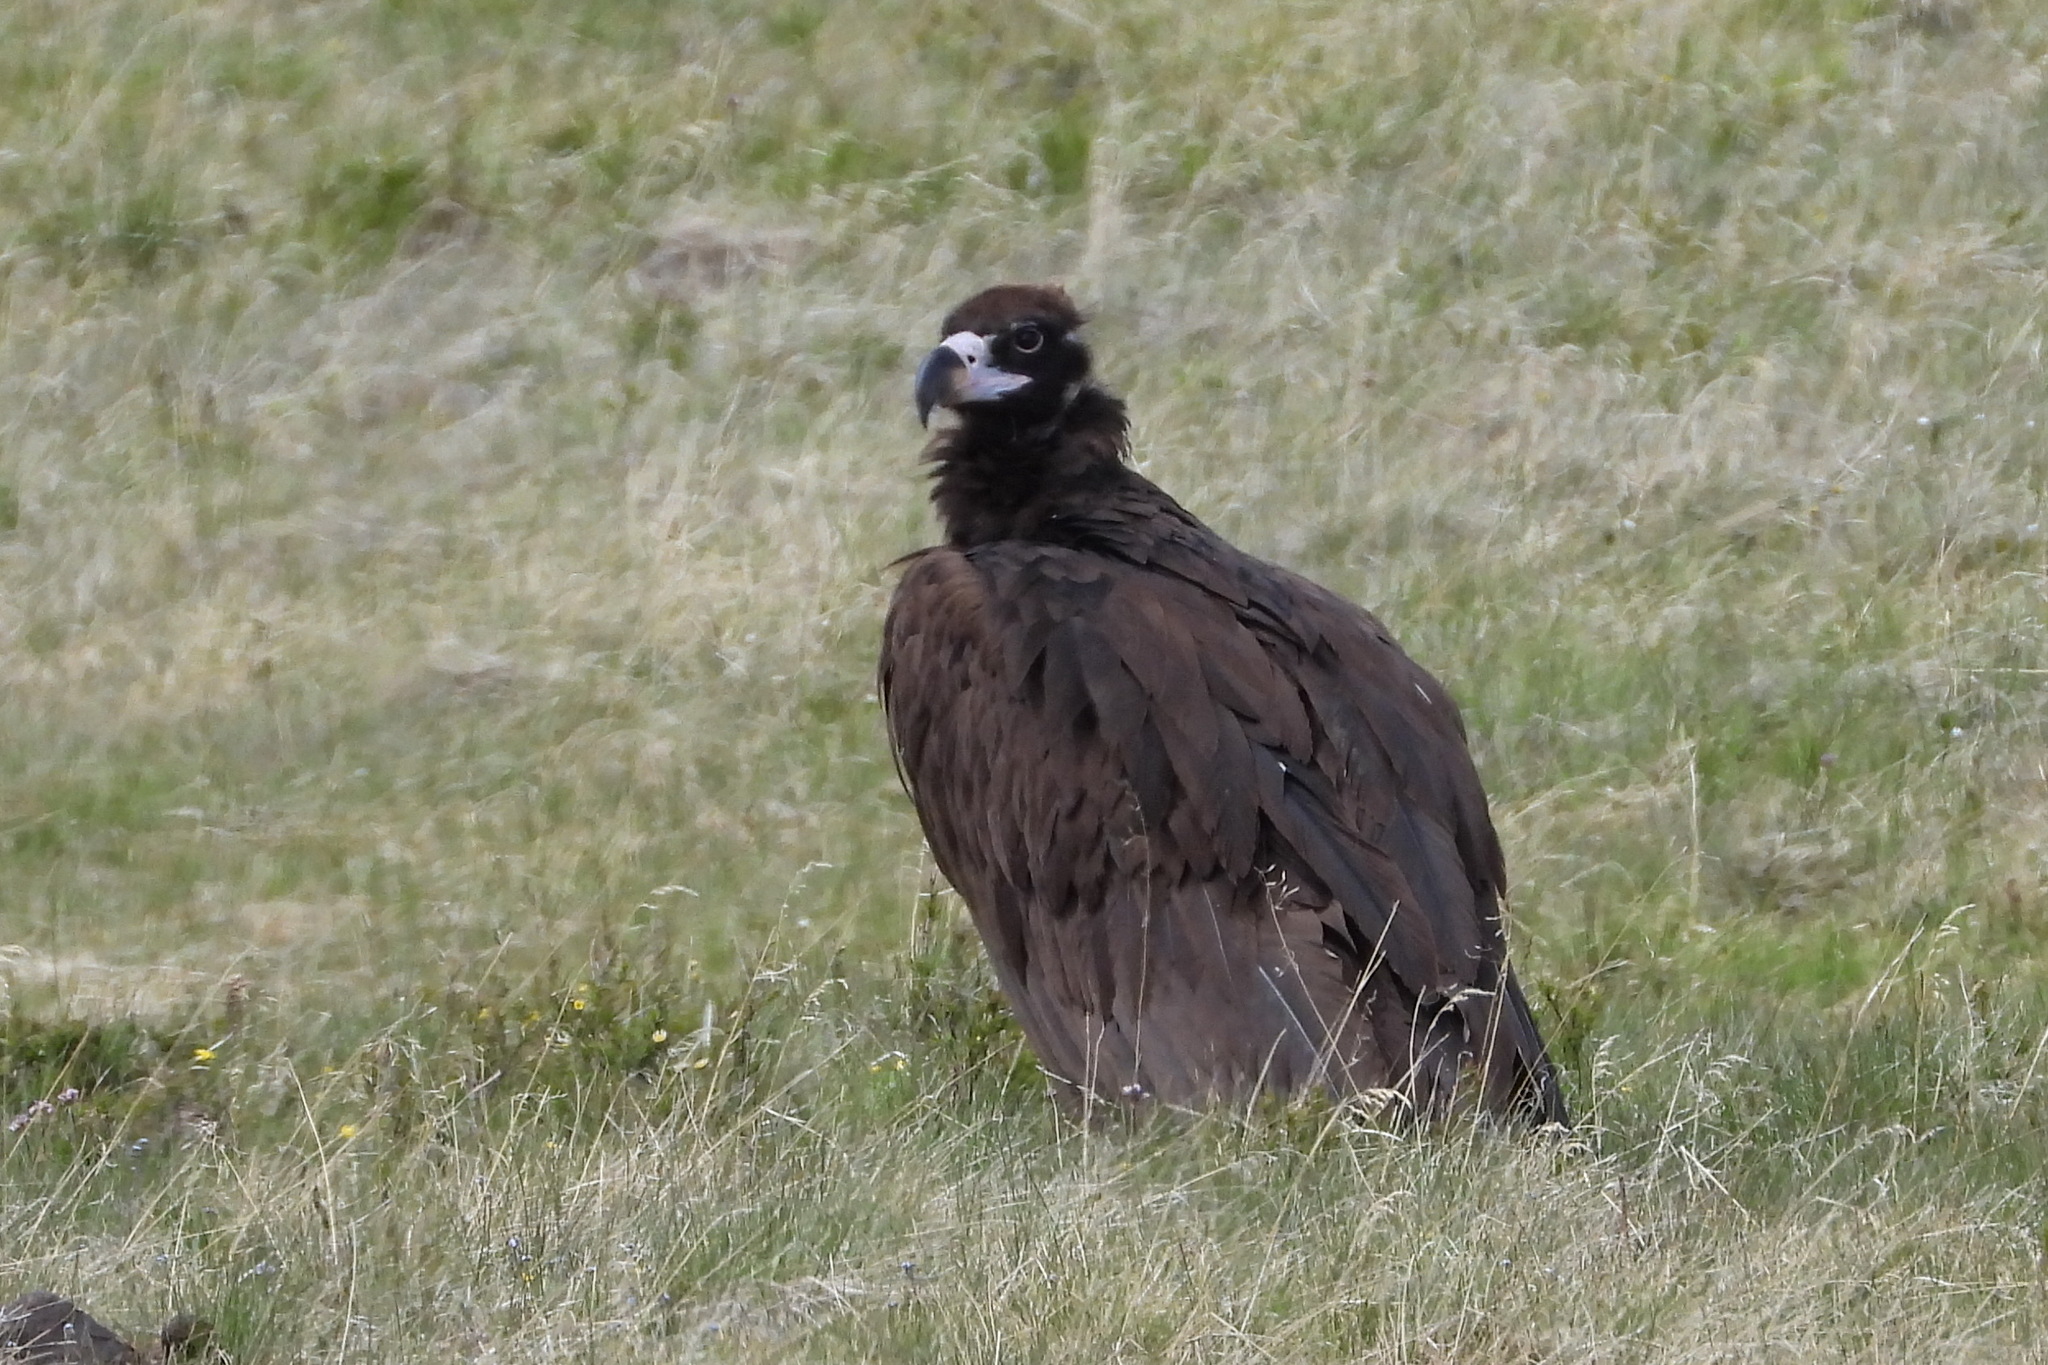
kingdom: Animalia
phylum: Chordata
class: Aves
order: Accipitriformes
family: Accipitridae
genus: Aegypius
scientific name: Aegypius monachus
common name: Cinereous vulture
